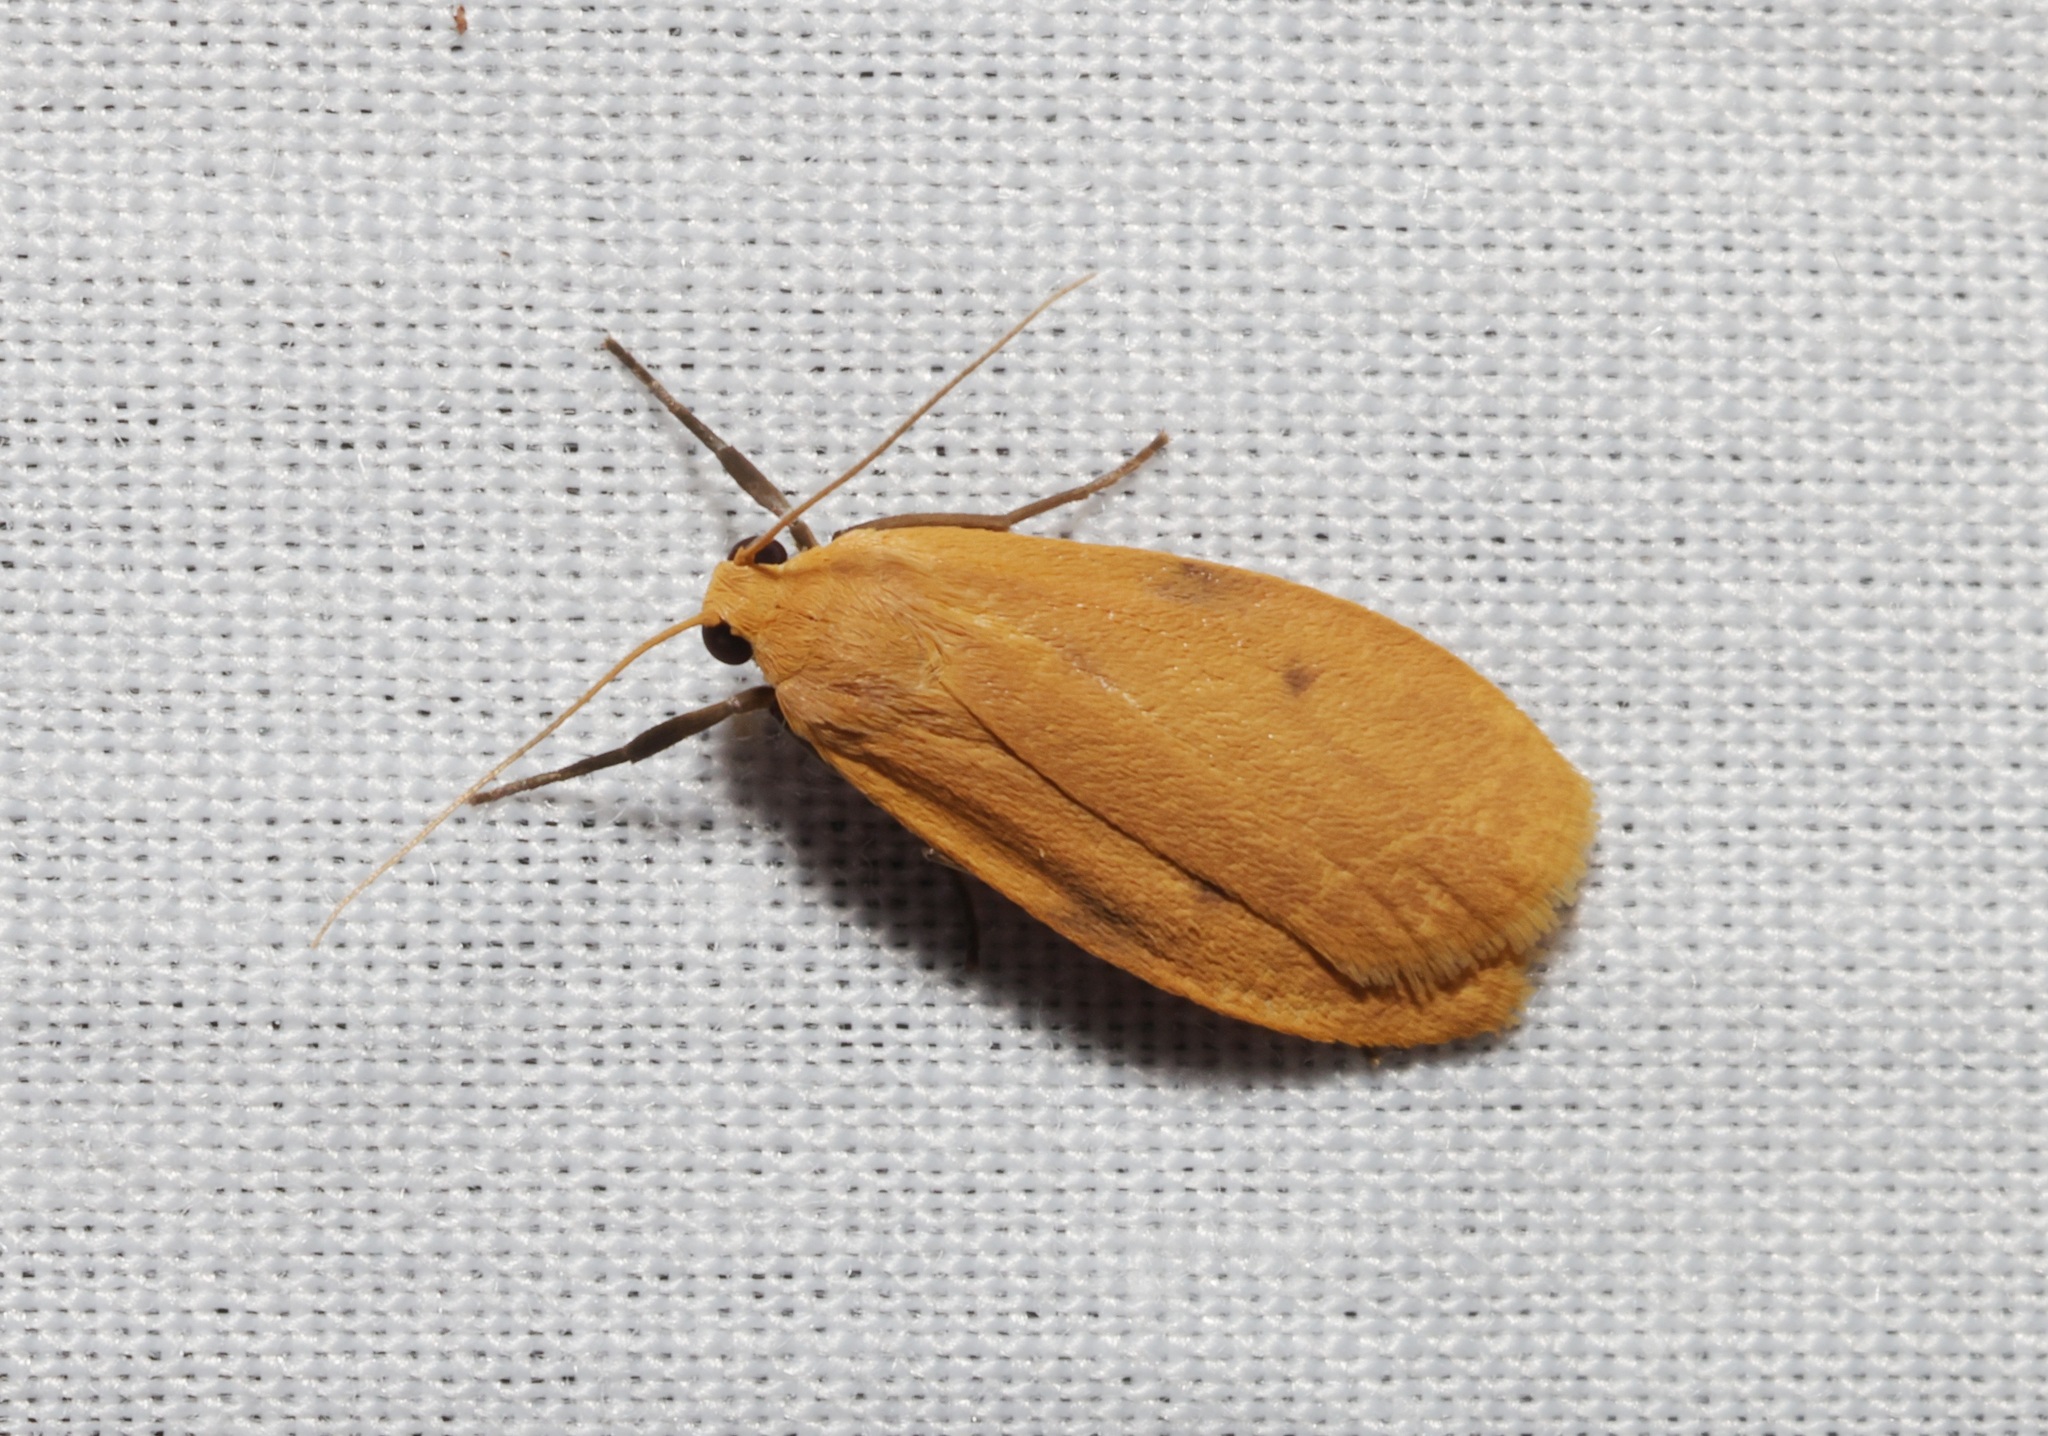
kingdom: Animalia
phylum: Arthropoda
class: Insecta
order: Lepidoptera
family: Erebidae
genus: Microlithosia
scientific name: Microlithosia shaowuica
